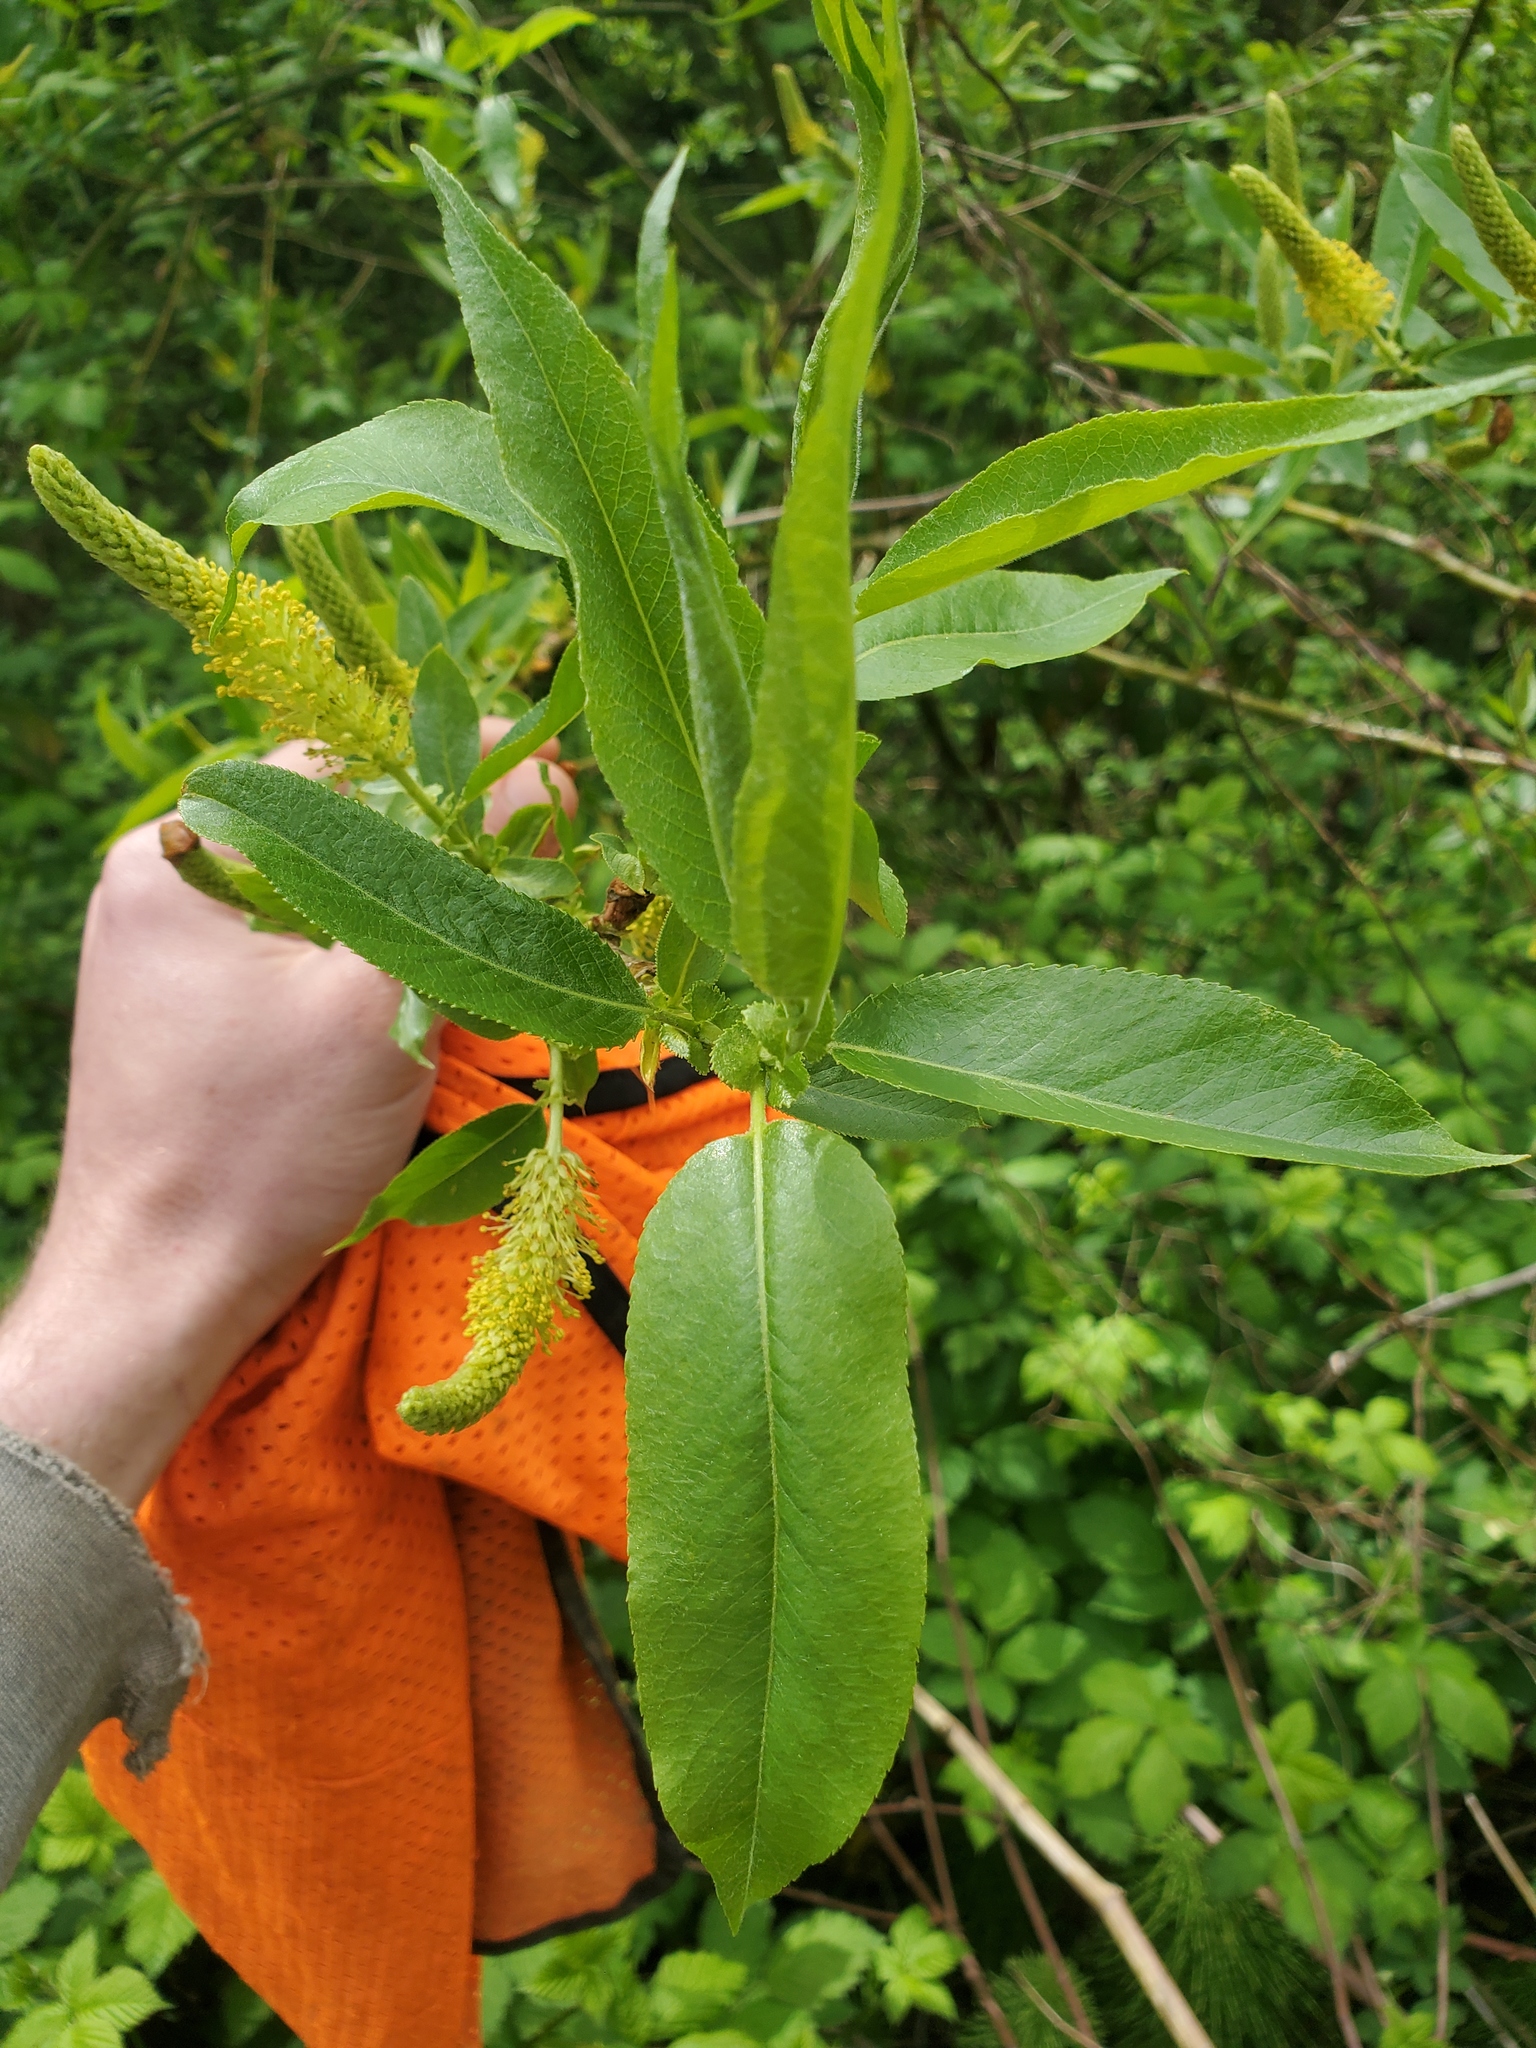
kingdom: Plantae
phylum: Tracheophyta
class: Magnoliopsida
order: Malpighiales
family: Salicaceae
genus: Salix
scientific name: Salix lucida
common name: Shining willow
